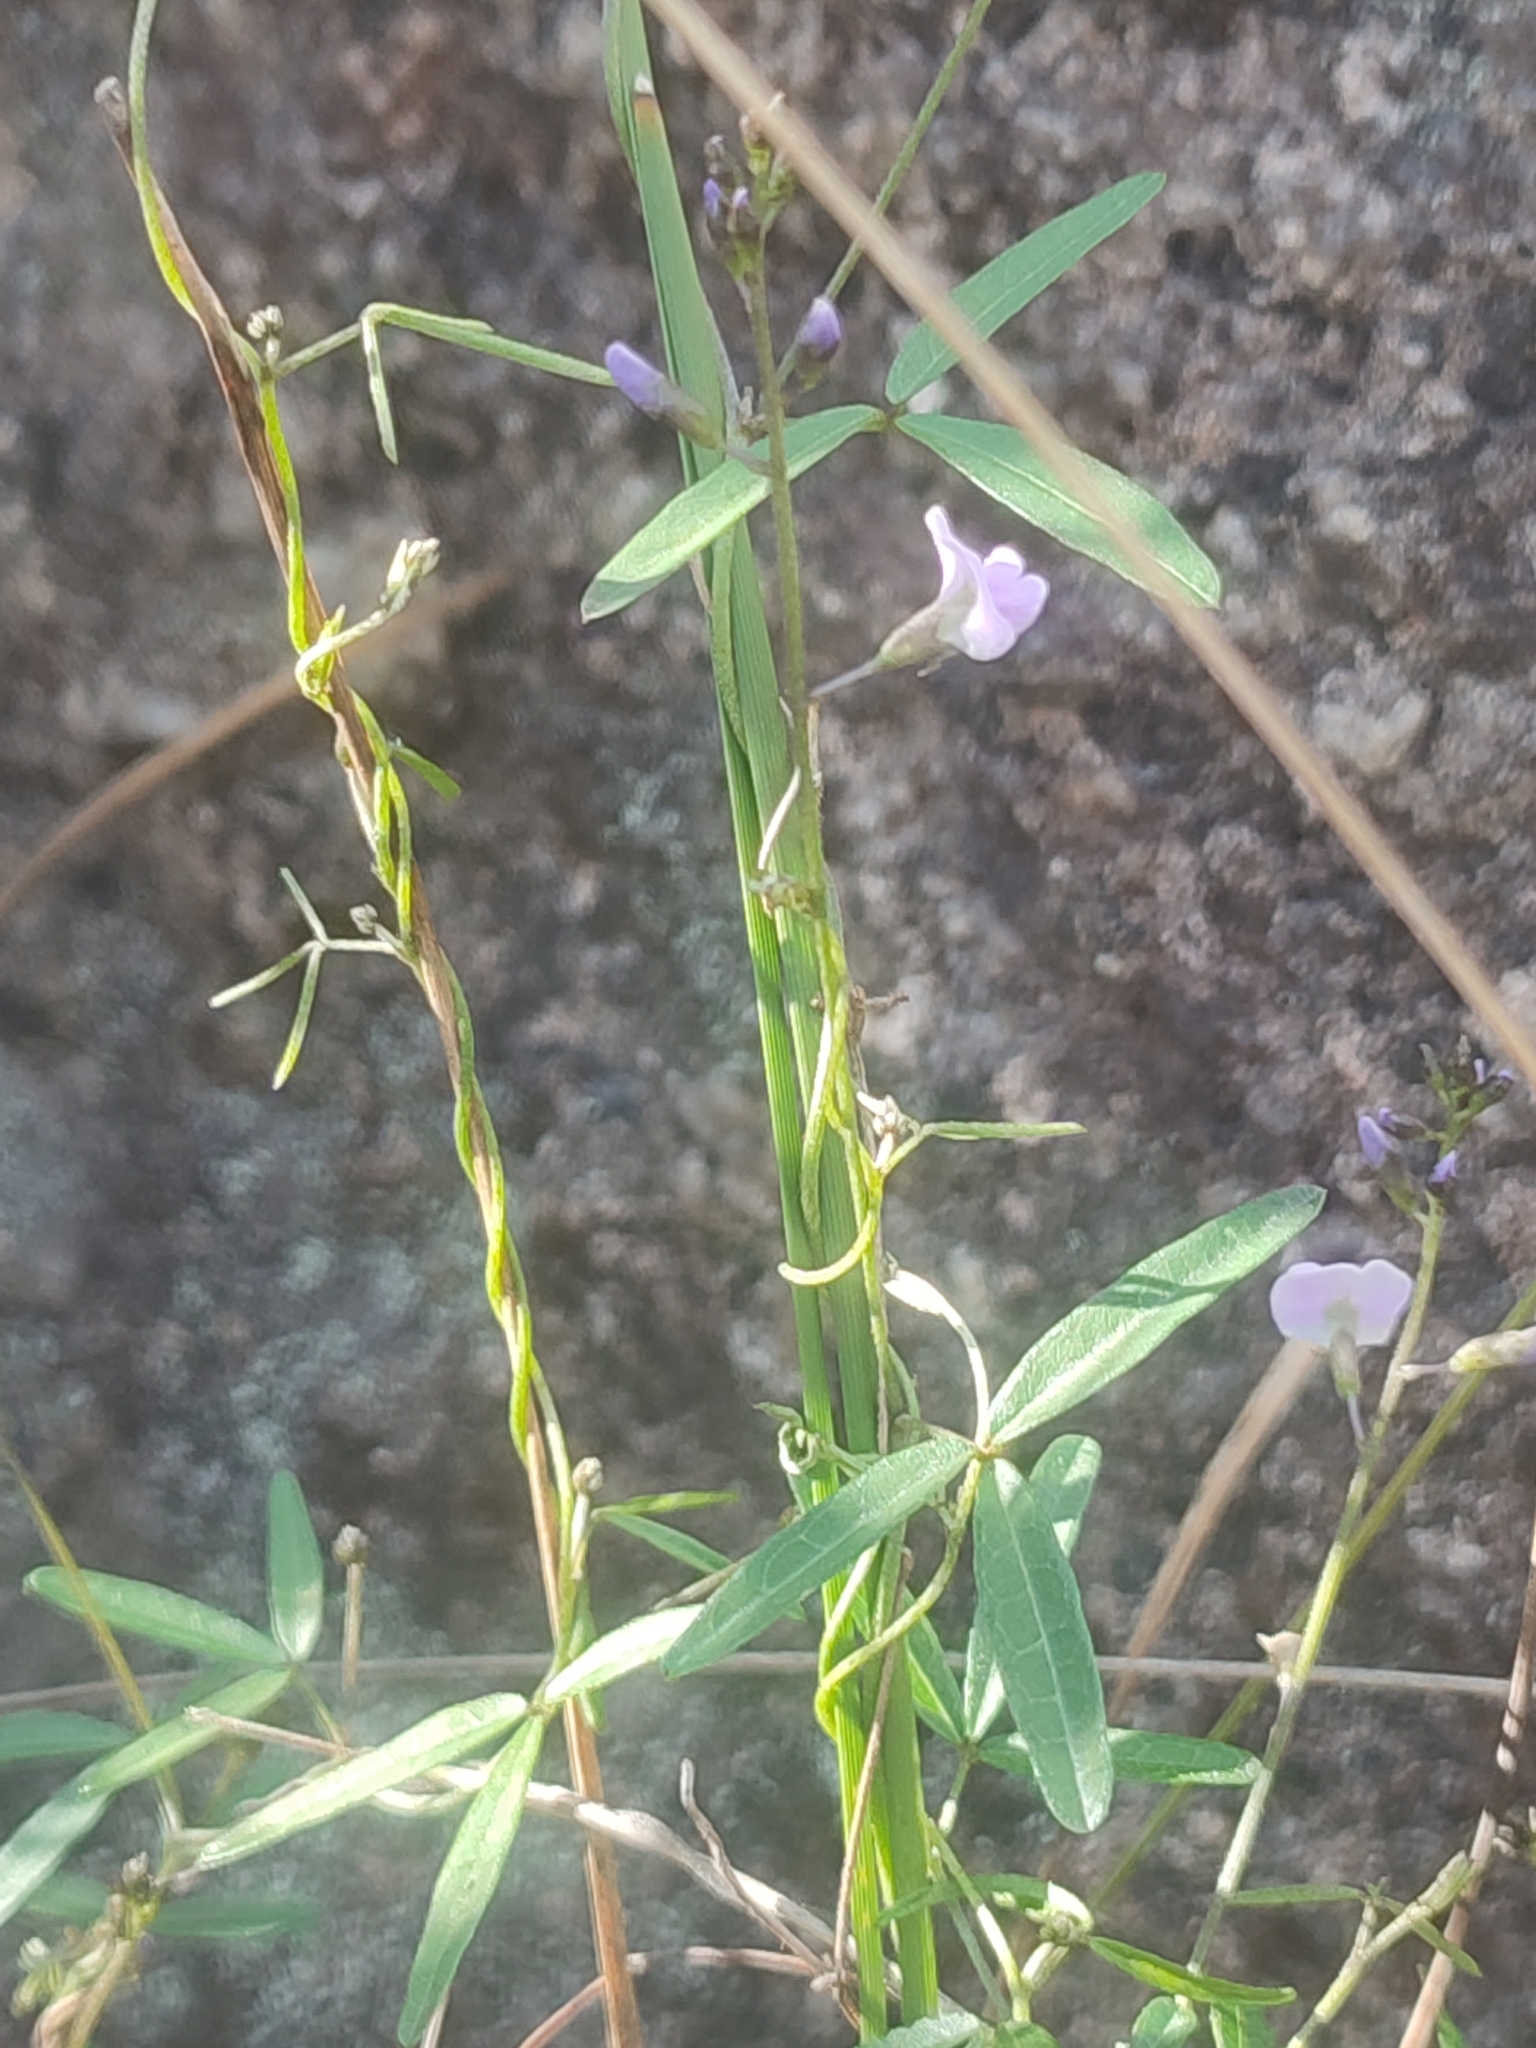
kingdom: Plantae
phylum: Tracheophyta
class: Magnoliopsida
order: Fabales
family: Fabaceae
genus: Glycine
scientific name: Glycine clandestina
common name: Twining glycine
